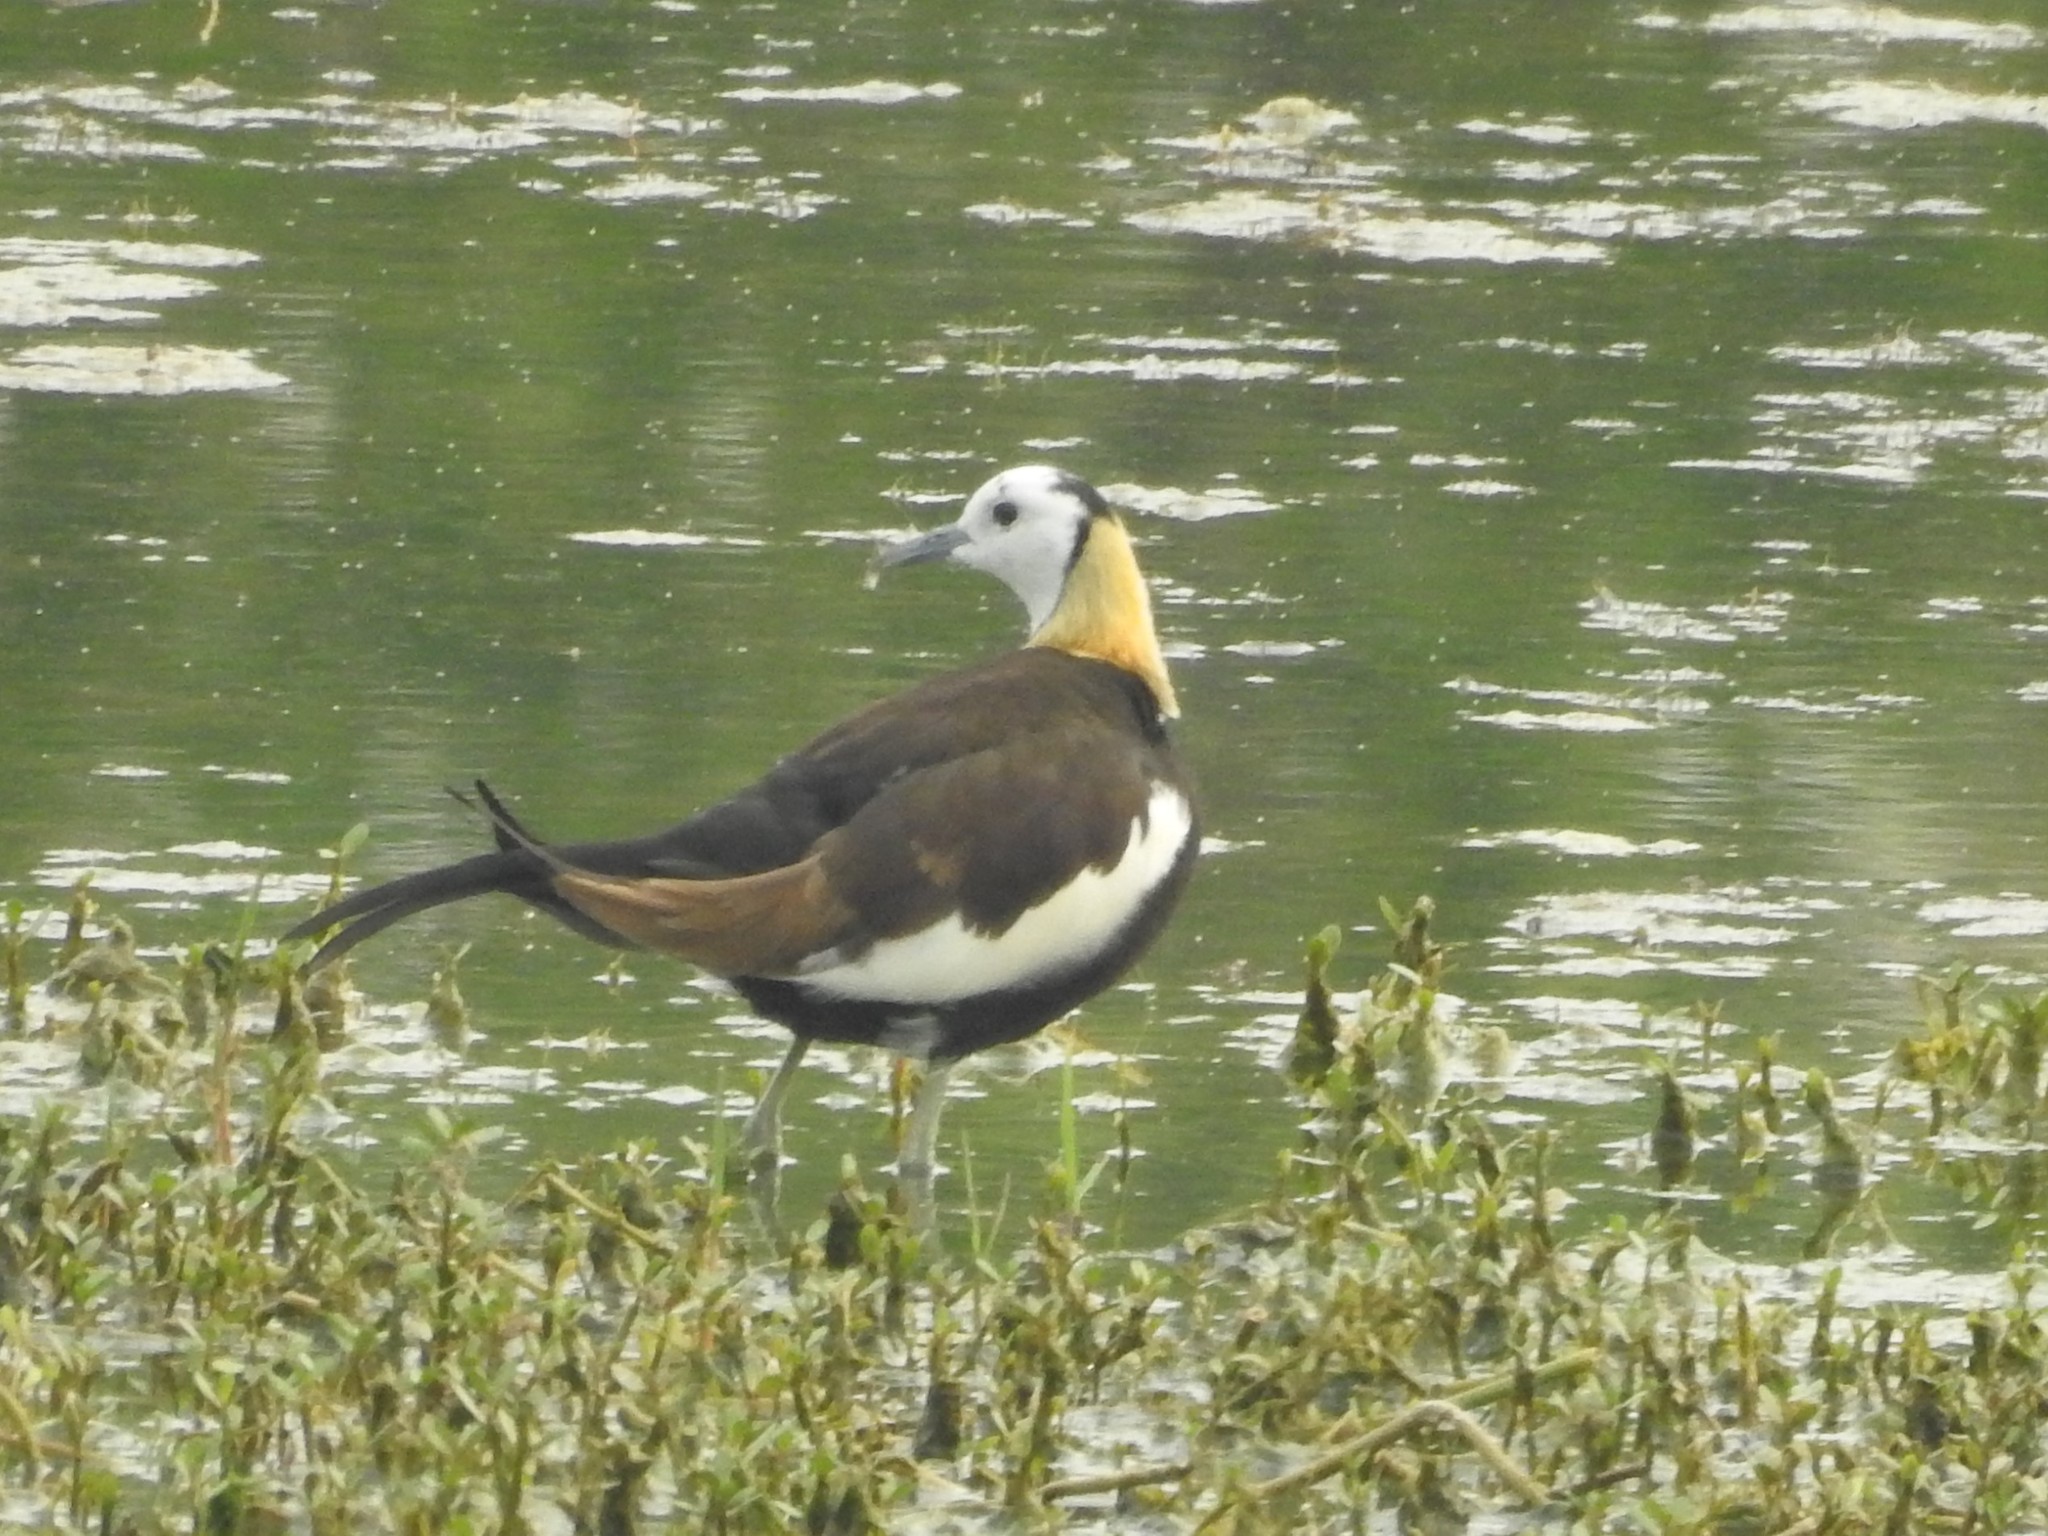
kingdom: Animalia
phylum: Chordata
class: Aves
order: Charadriiformes
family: Jacanidae
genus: Hydrophasianus
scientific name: Hydrophasianus chirurgus
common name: Pheasant-tailed jacana
